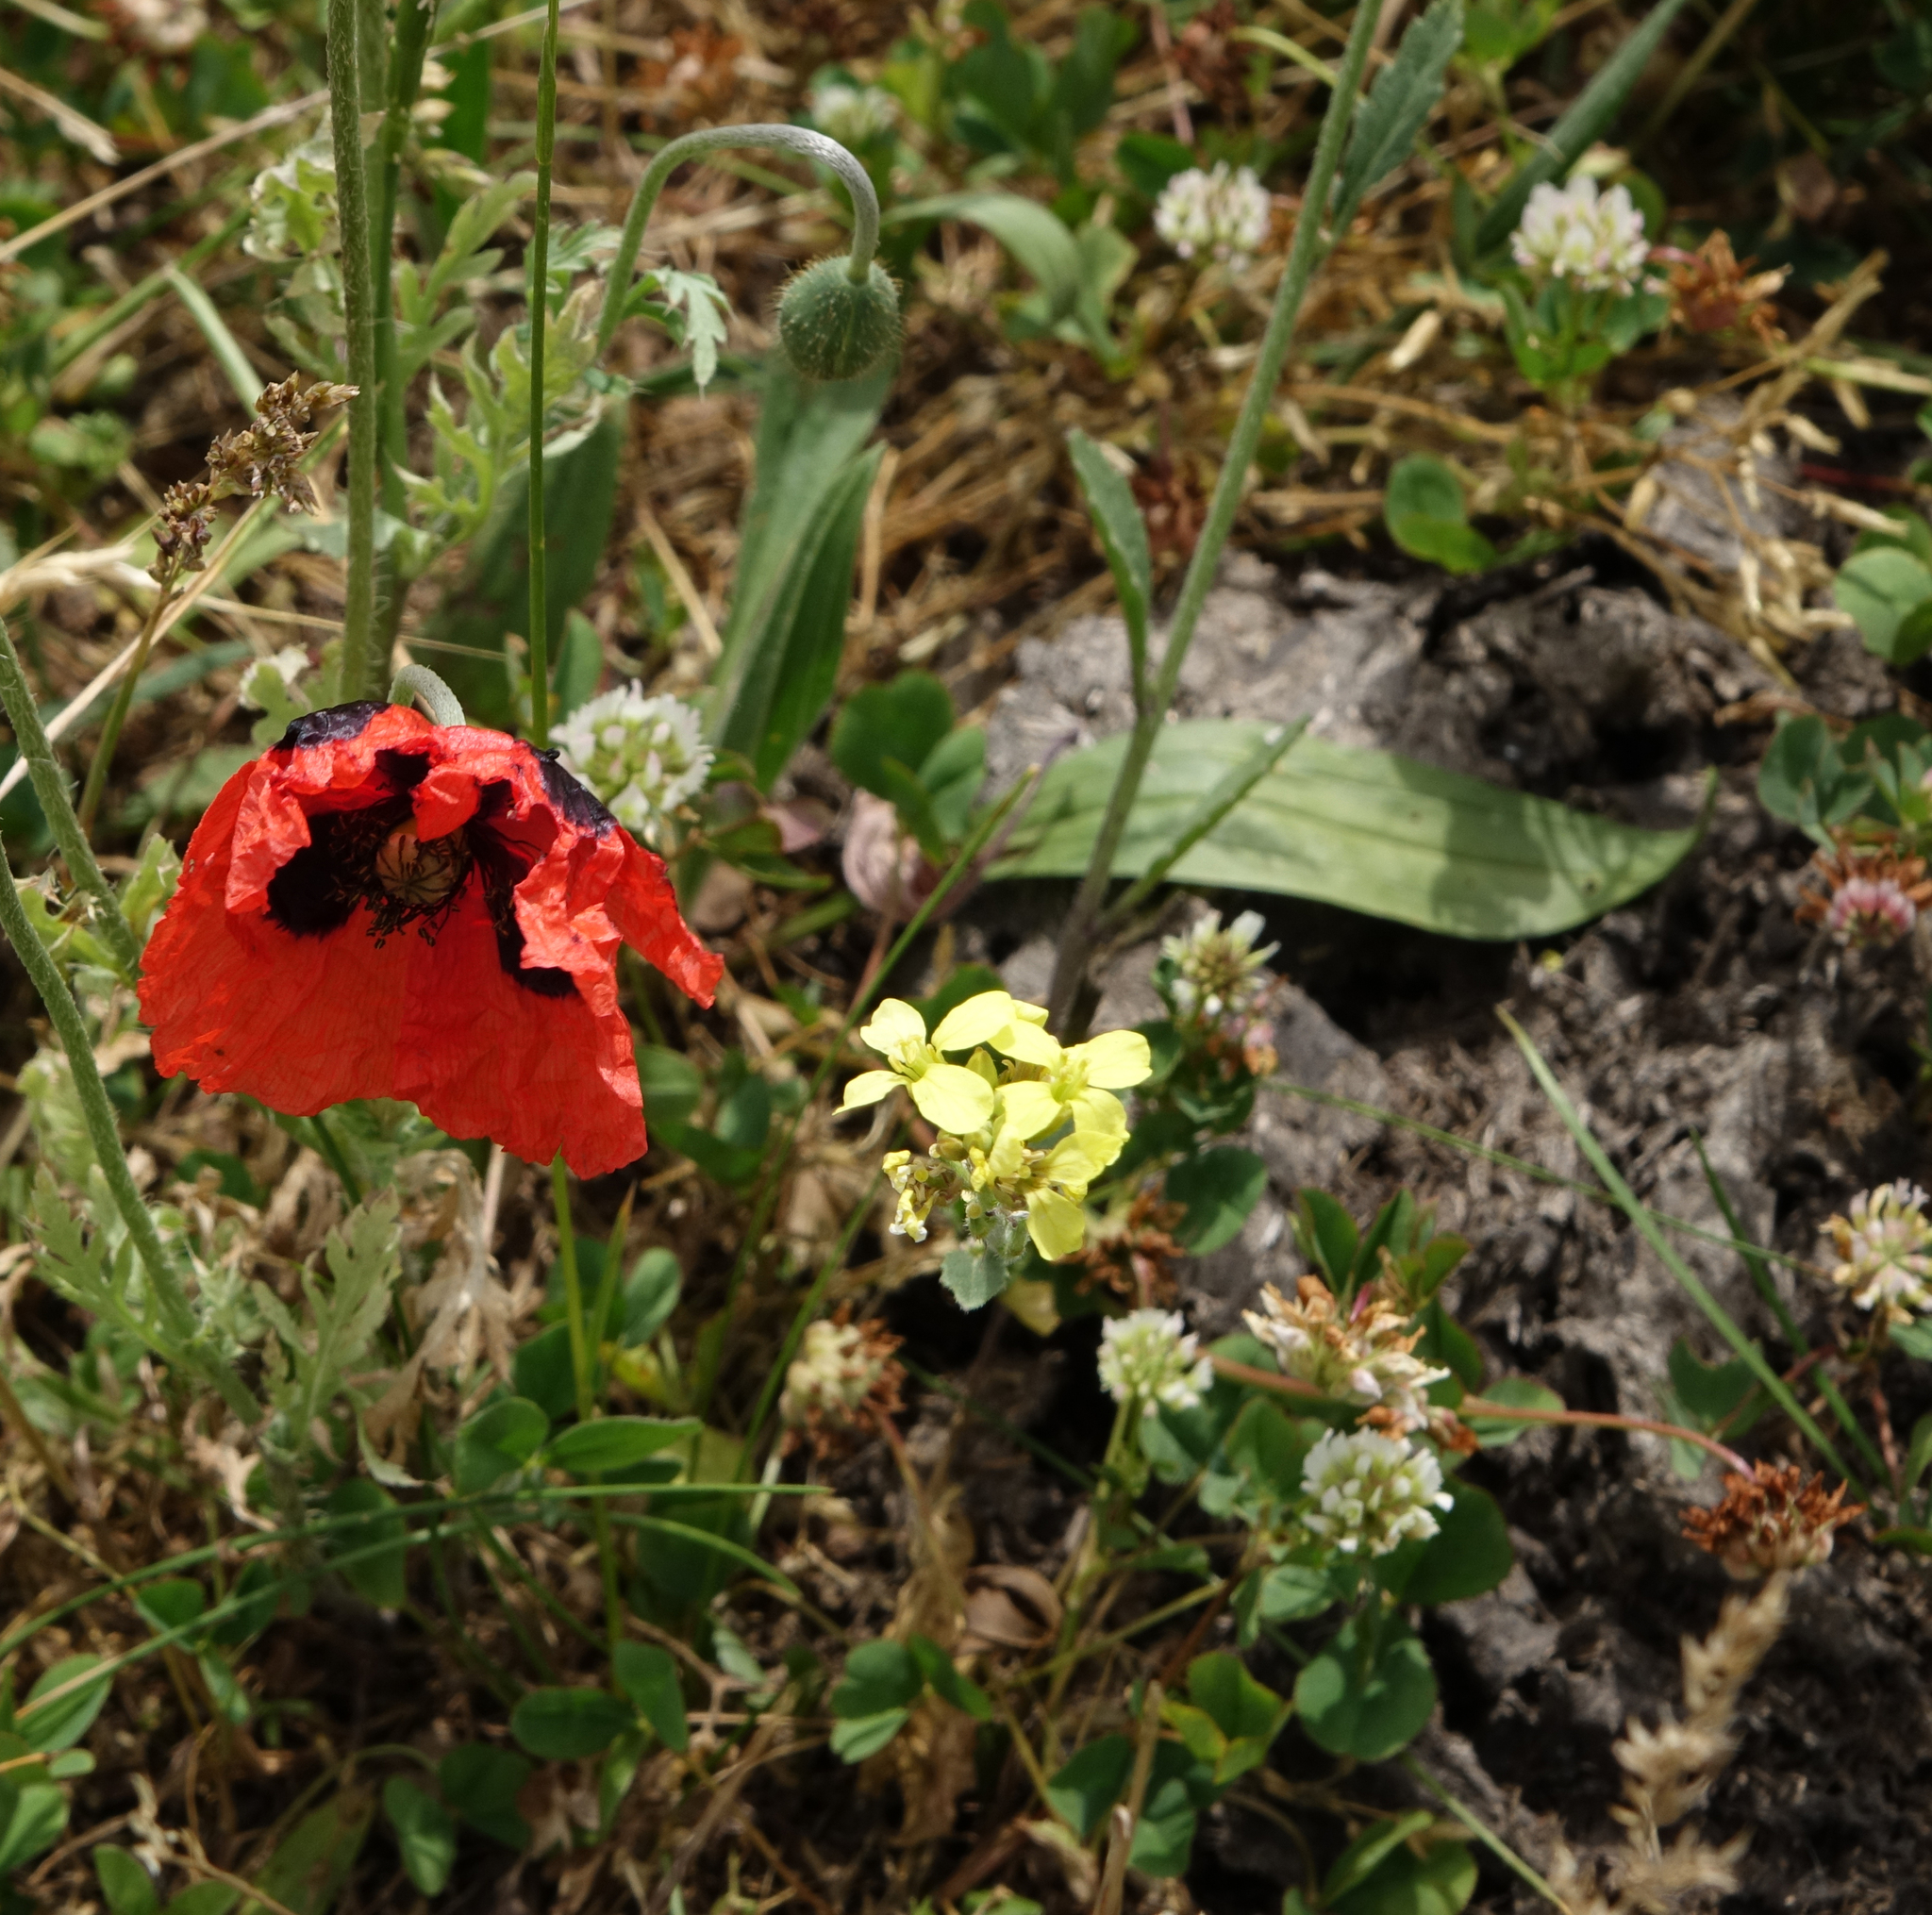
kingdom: Plantae
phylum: Tracheophyta
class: Magnoliopsida
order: Fabales
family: Fabaceae
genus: Trifolium
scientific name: Trifolium repens
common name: White clover
